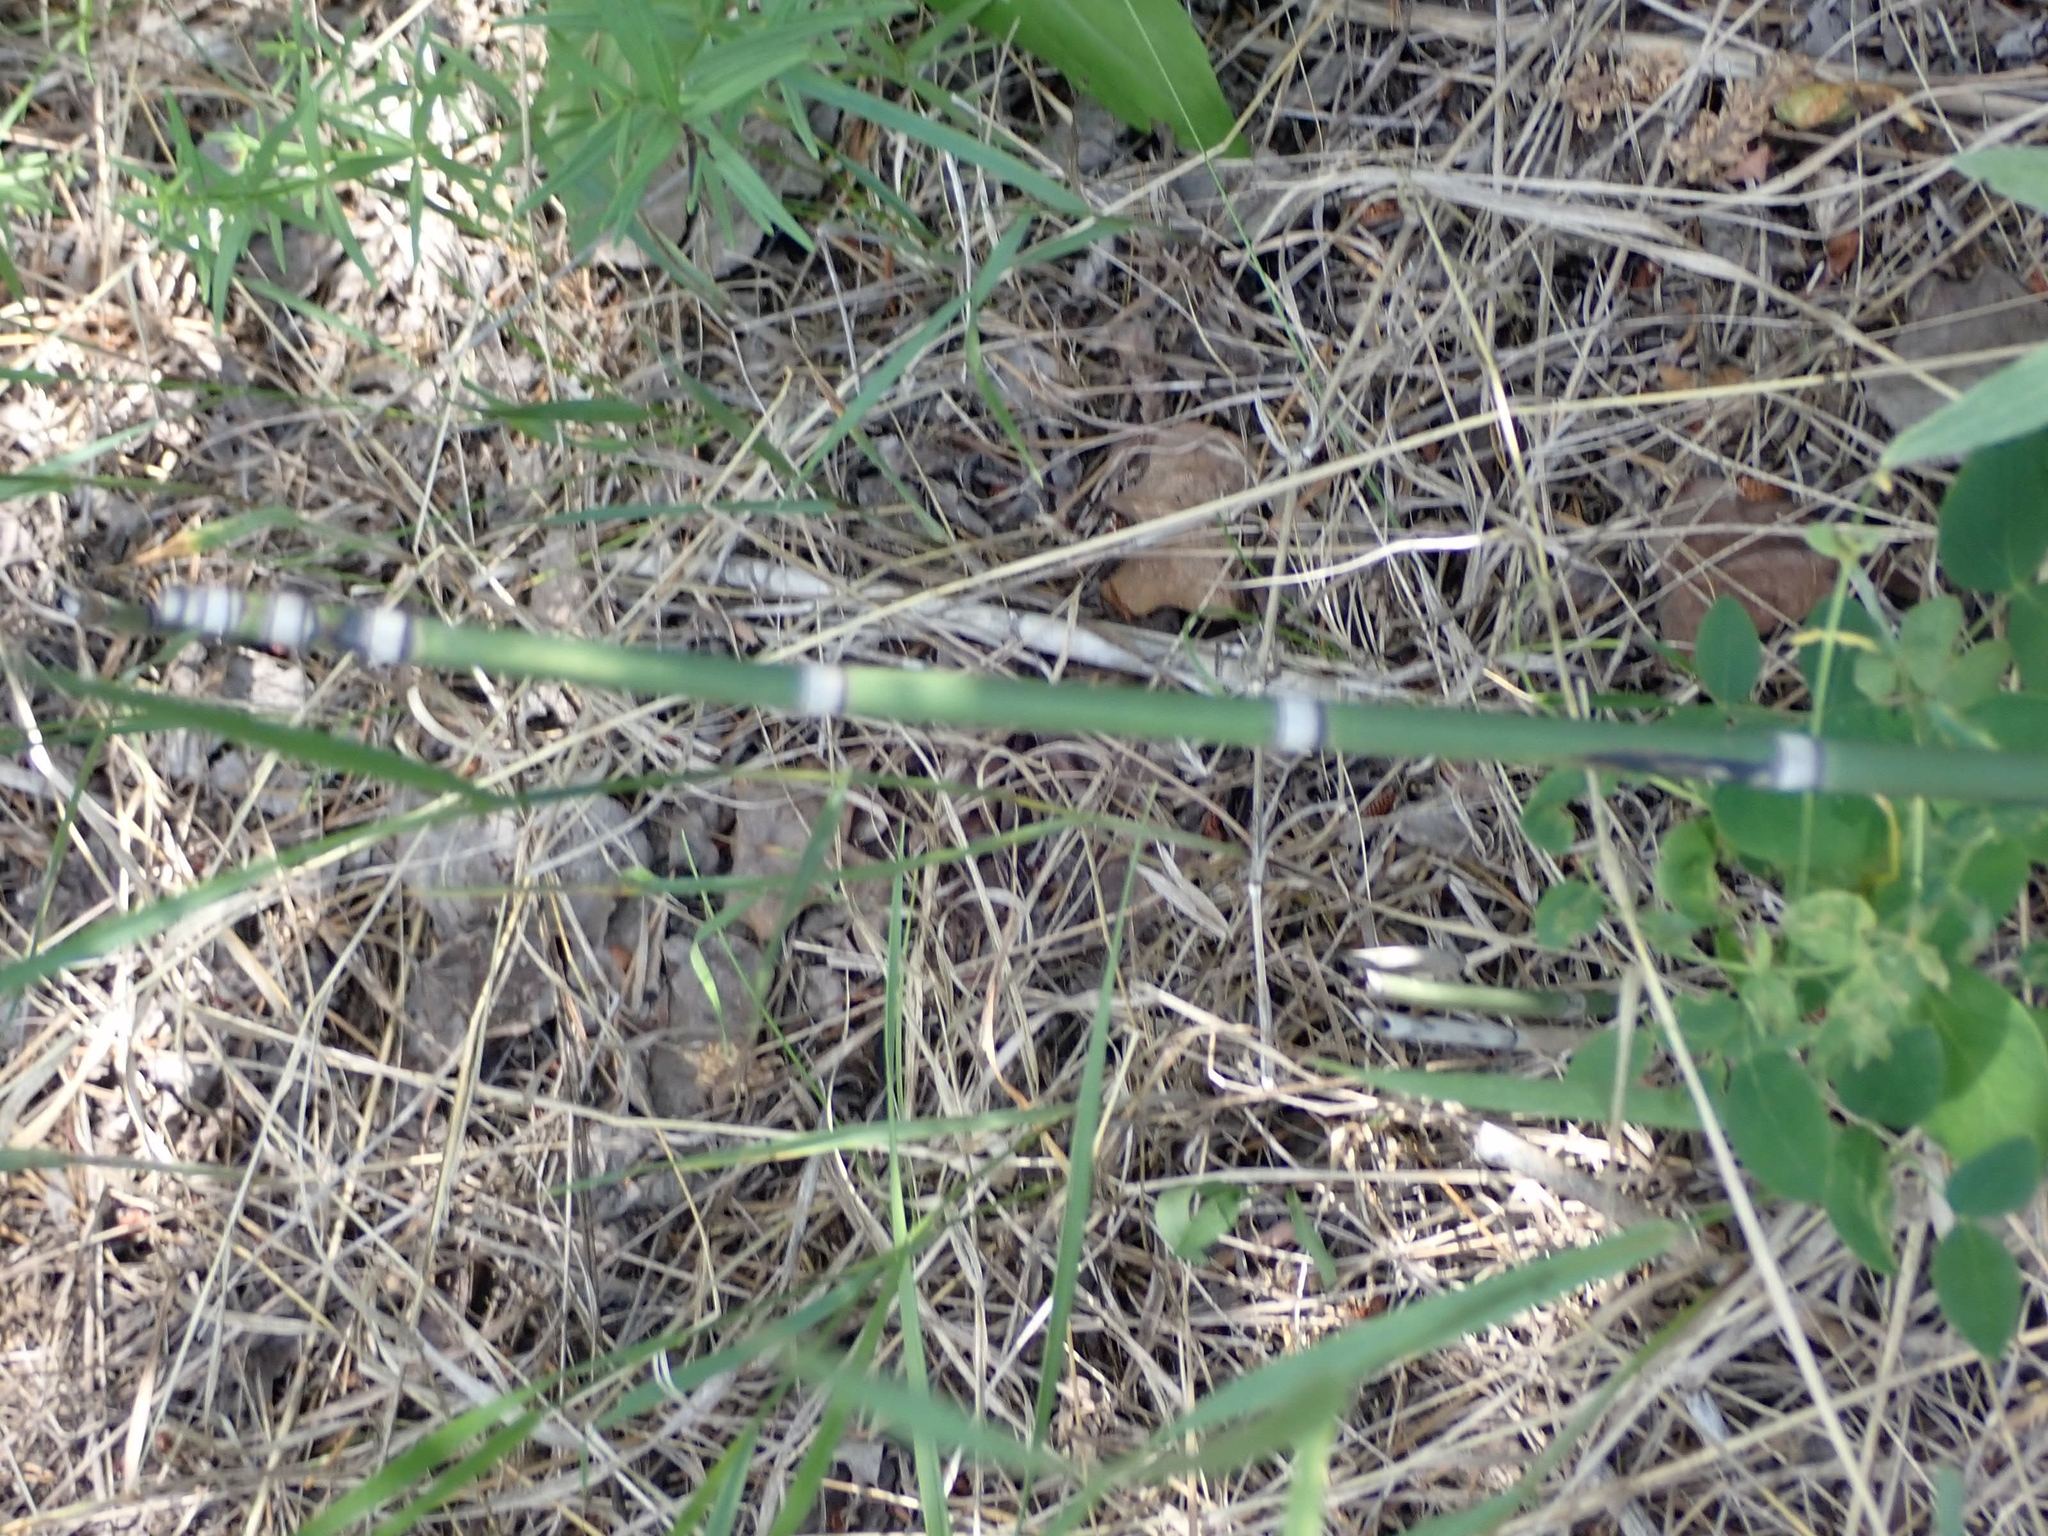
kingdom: Plantae
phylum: Tracheophyta
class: Polypodiopsida
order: Equisetales
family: Equisetaceae
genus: Equisetum
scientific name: Equisetum praealtum
